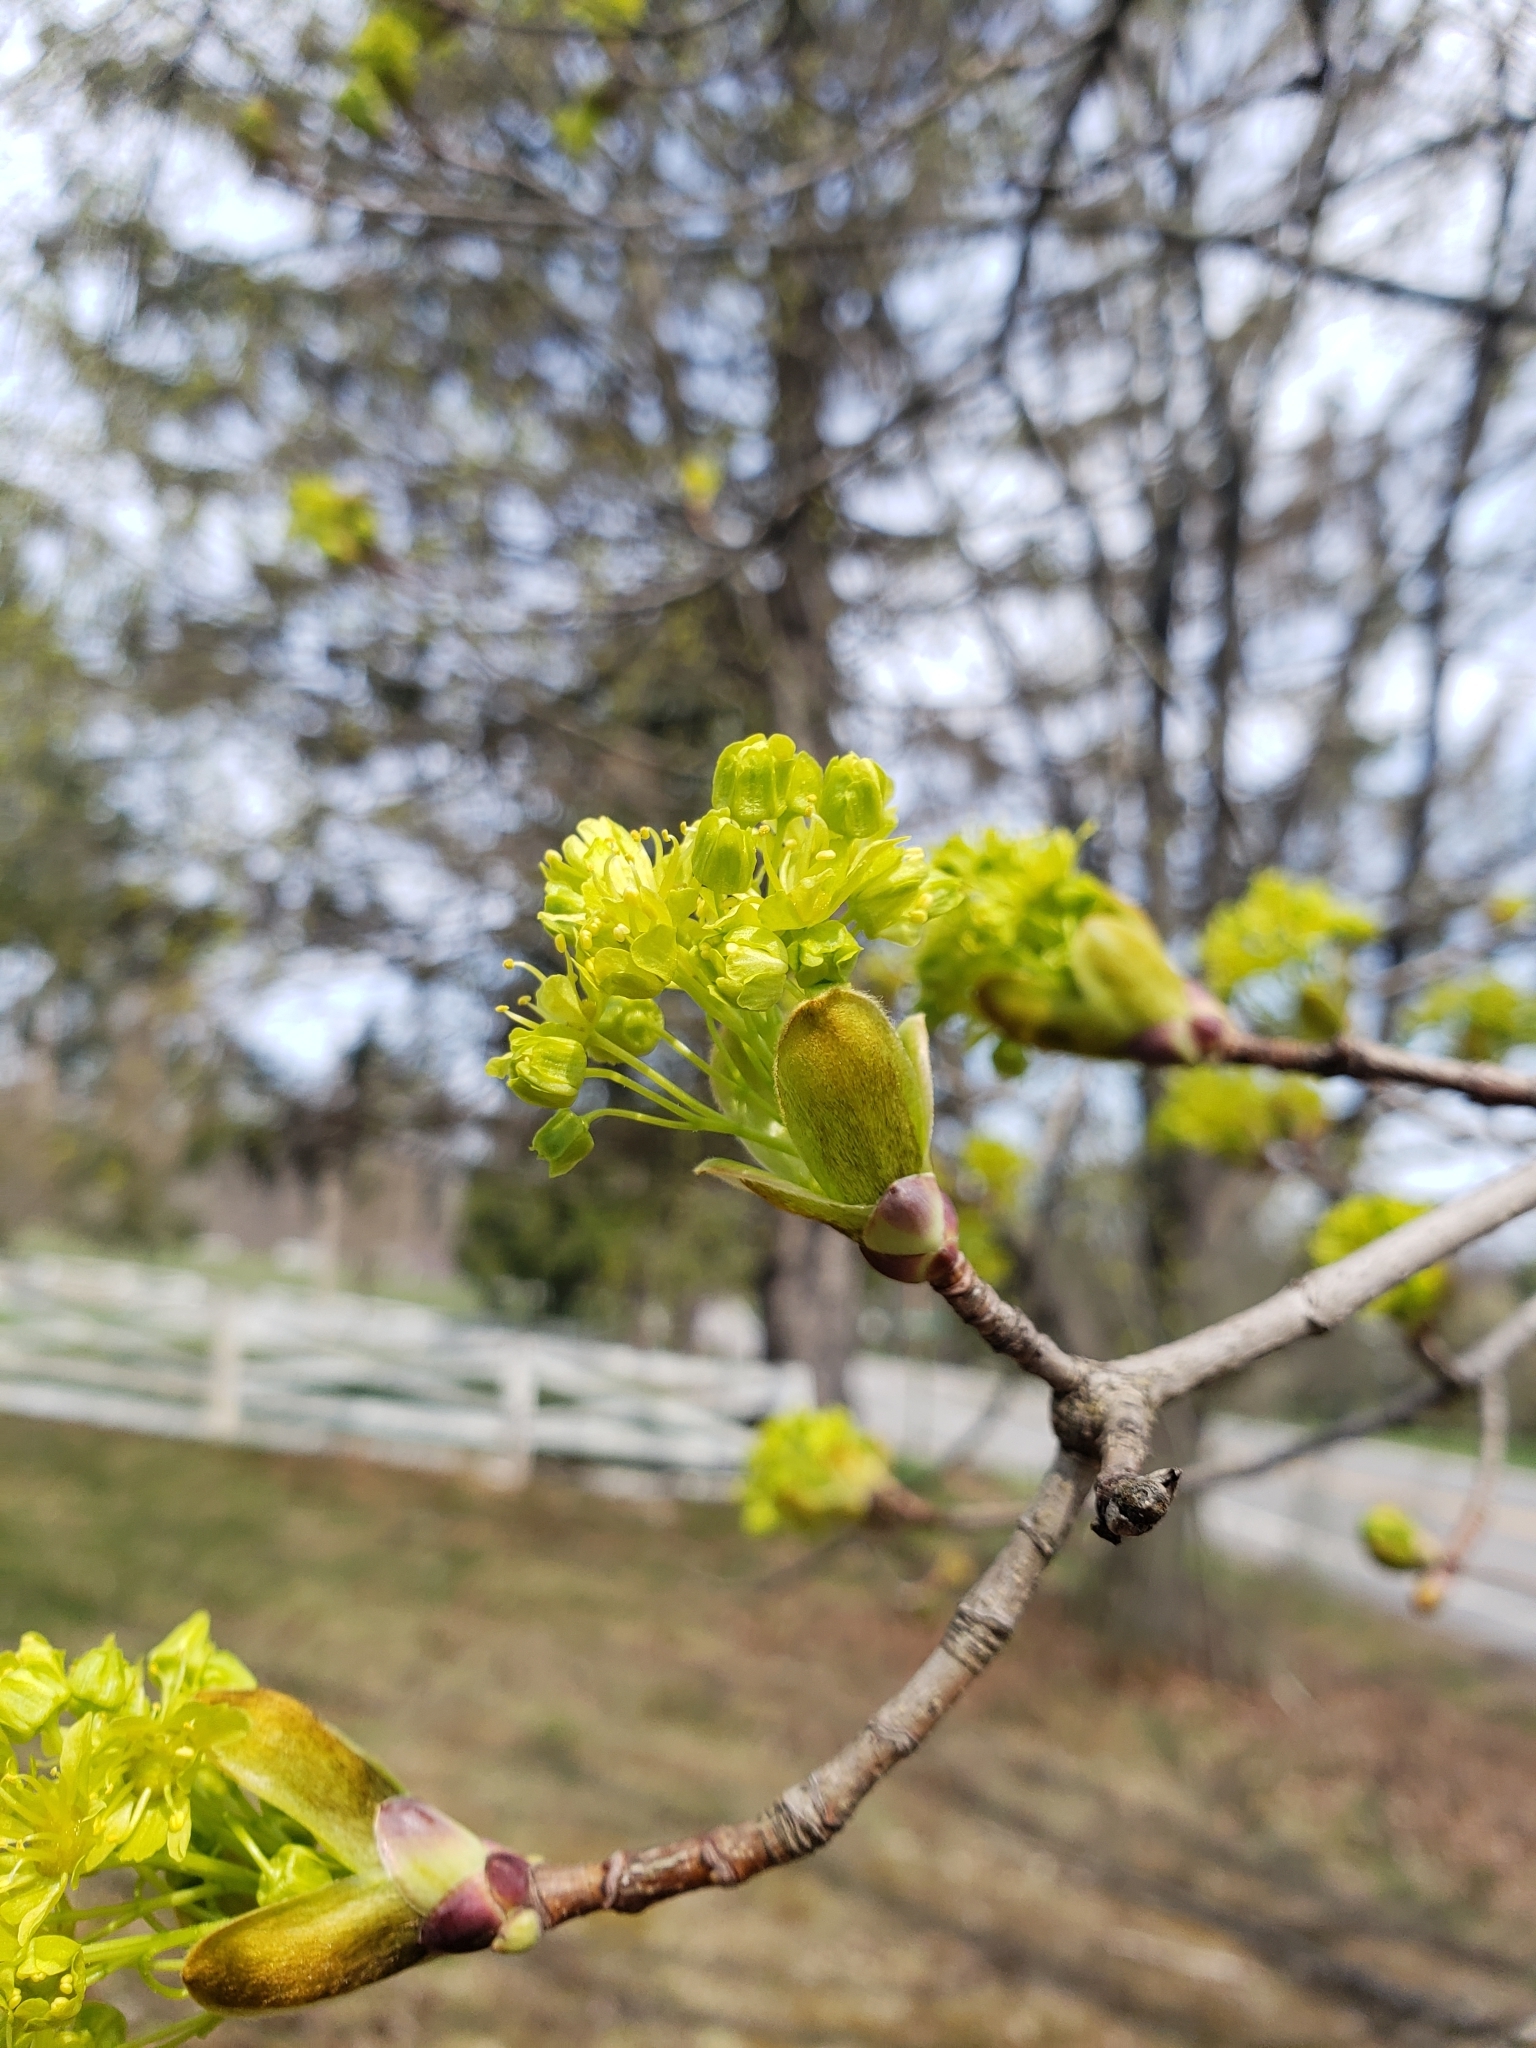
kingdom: Plantae
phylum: Tracheophyta
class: Magnoliopsida
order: Sapindales
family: Sapindaceae
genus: Acer
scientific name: Acer platanoides
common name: Norway maple
